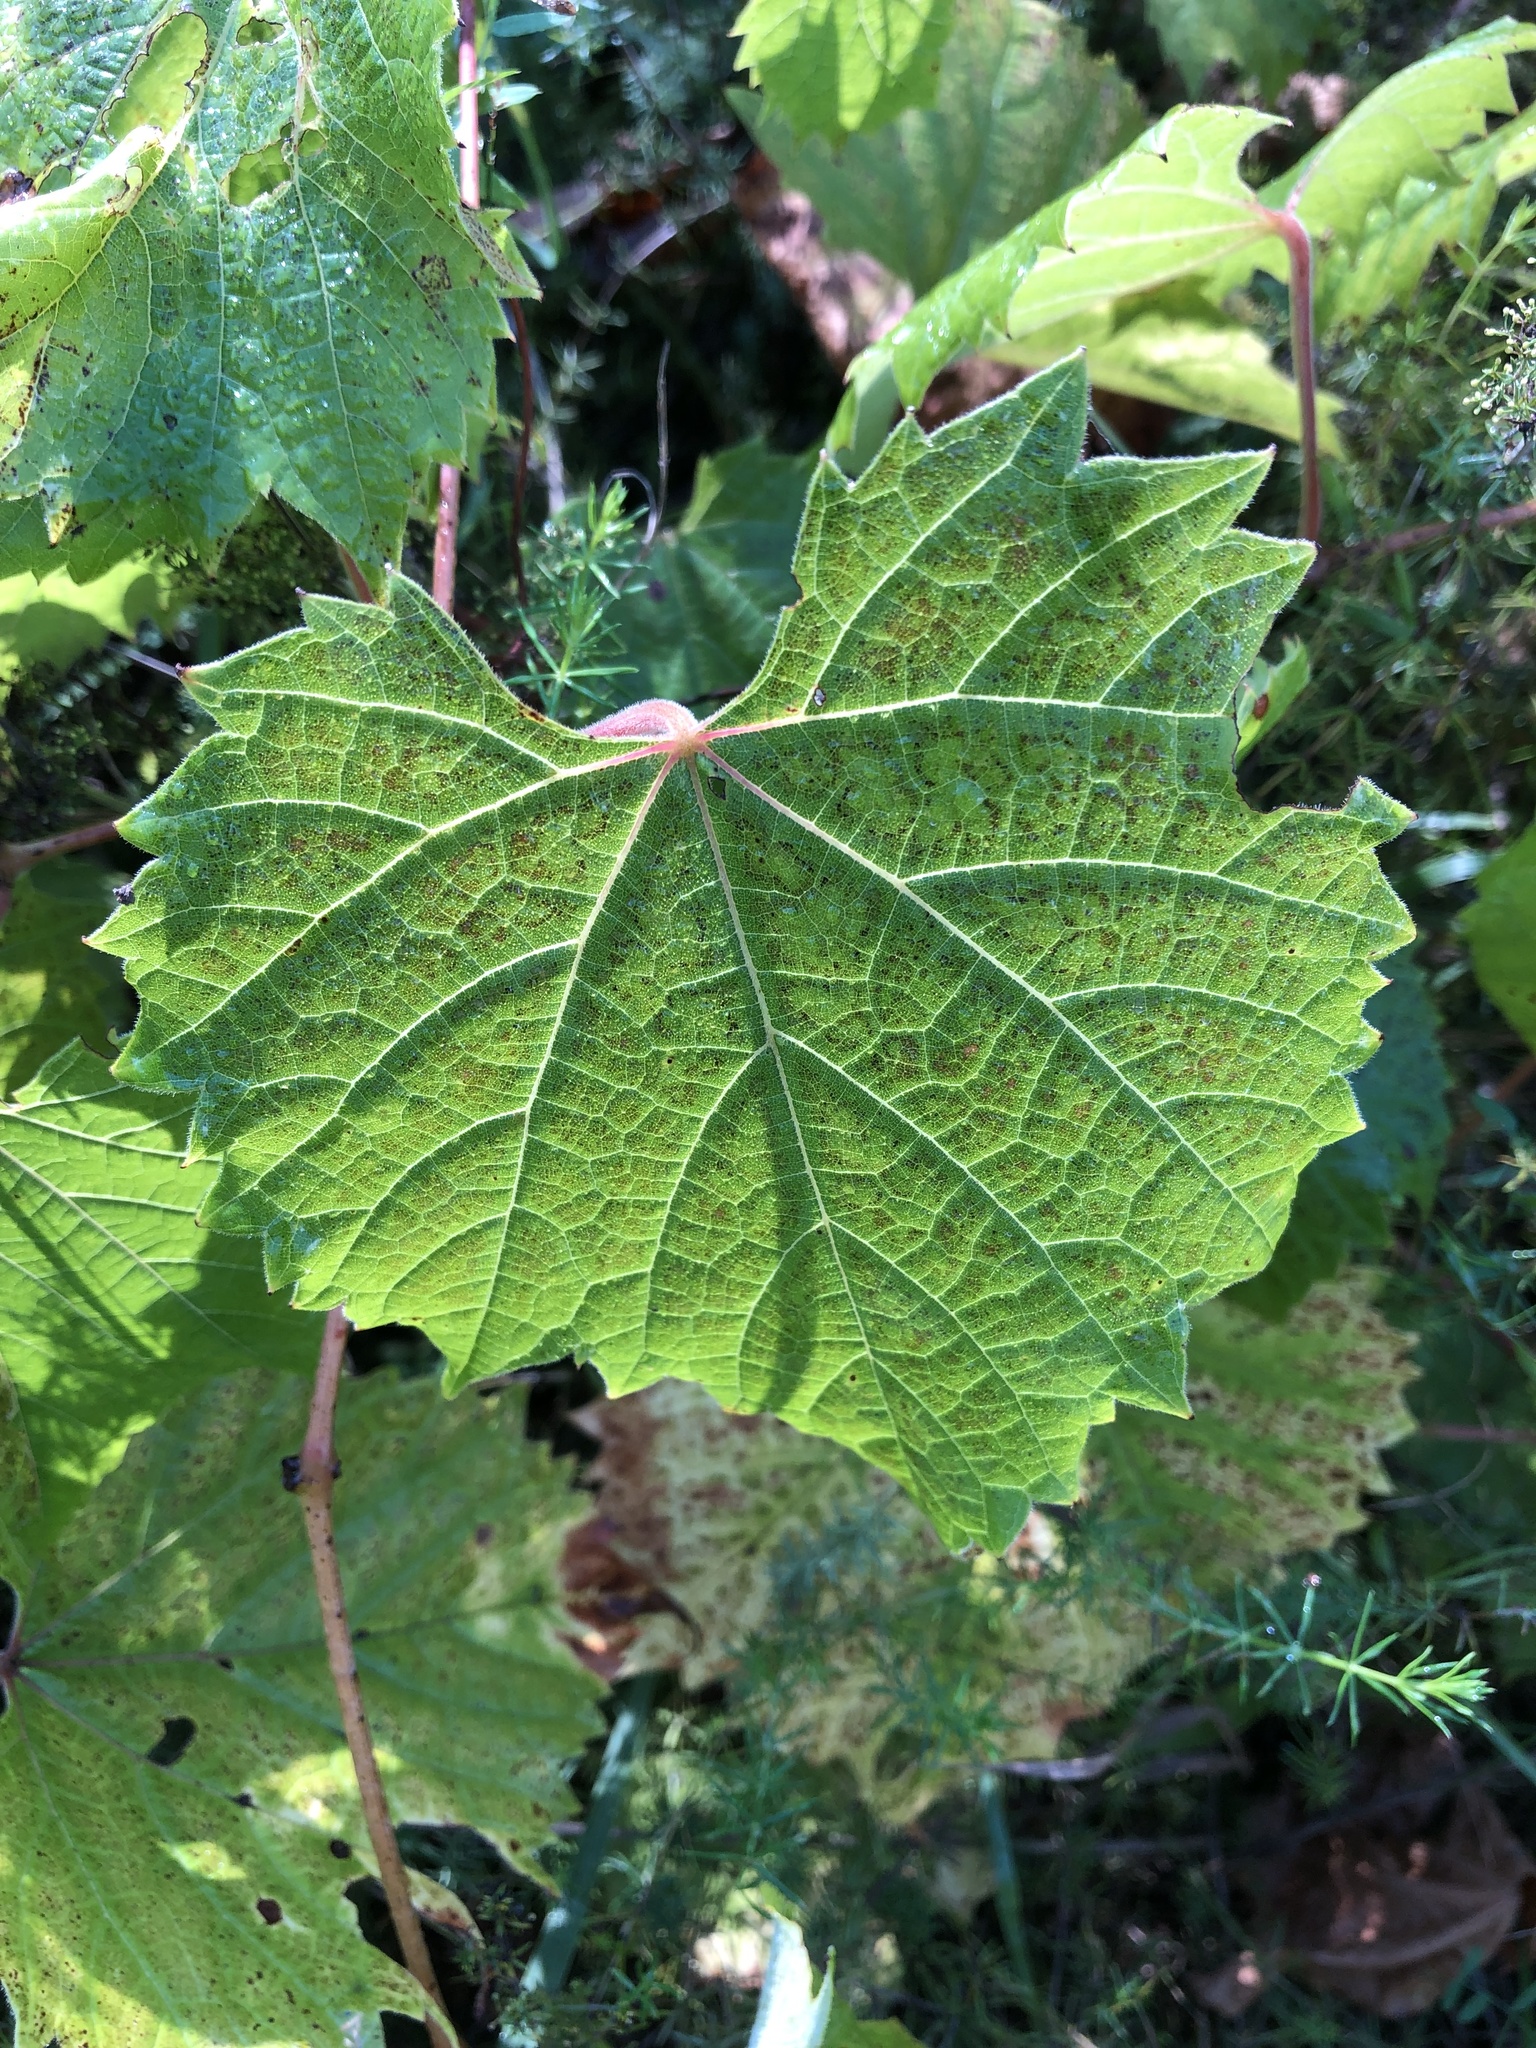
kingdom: Plantae
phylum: Tracheophyta
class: Magnoliopsida
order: Vitales
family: Vitaceae
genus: Vitis
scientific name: Vitis riparia
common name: Frost grape
